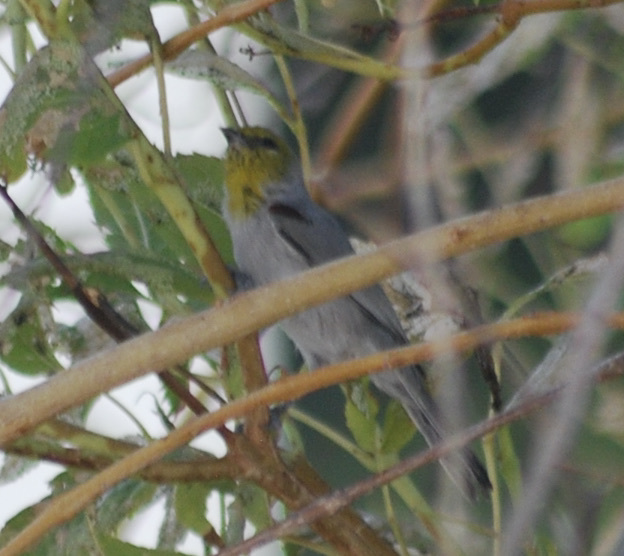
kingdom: Animalia
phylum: Chordata
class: Aves
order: Passeriformes
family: Remizidae
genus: Auriparus
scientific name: Auriparus flaviceps
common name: Verdin
